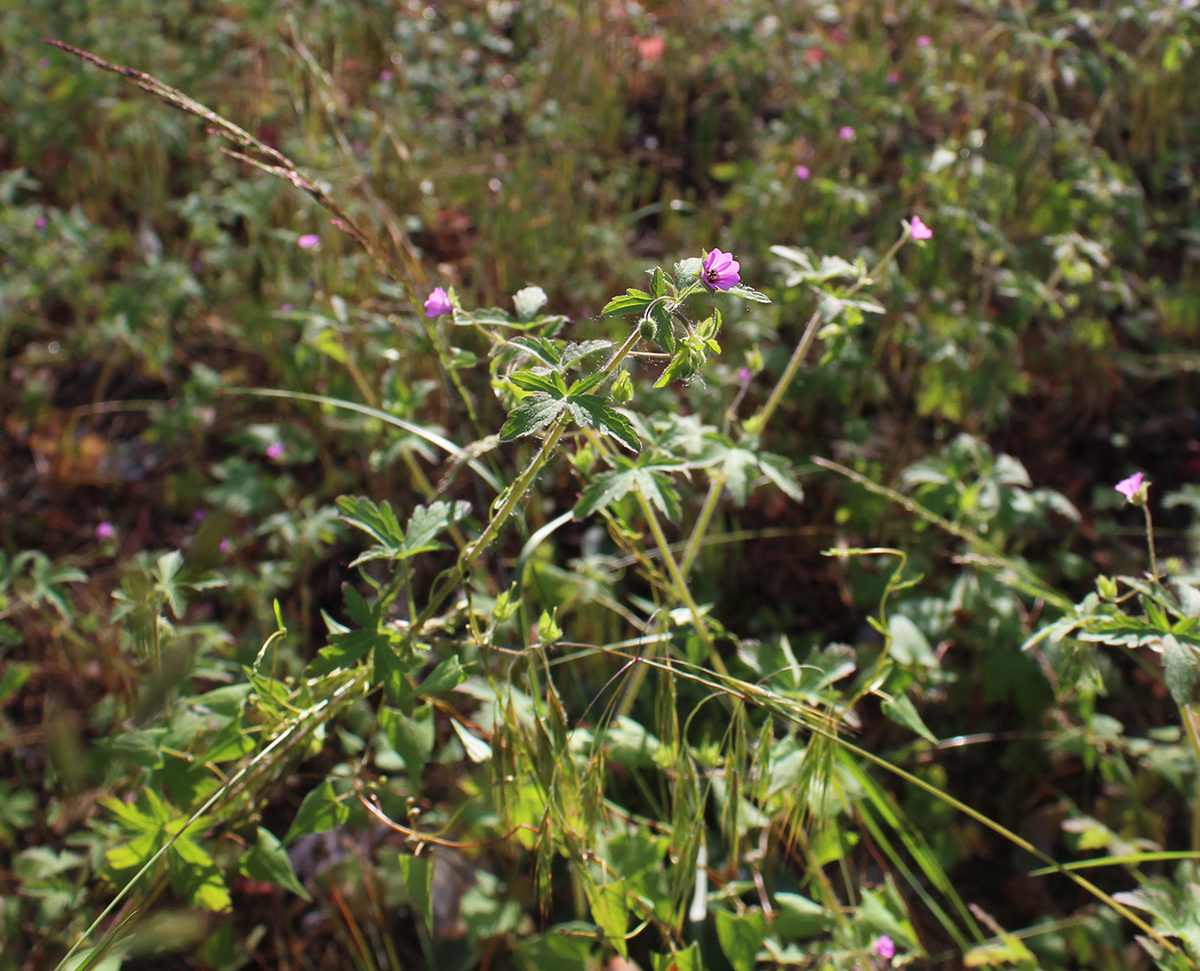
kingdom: Plantae
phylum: Tracheophyta
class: Magnoliopsida
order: Geraniales
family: Geraniaceae
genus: Geranium
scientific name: Geranium divaricatum
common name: Spreading crane's-bill
